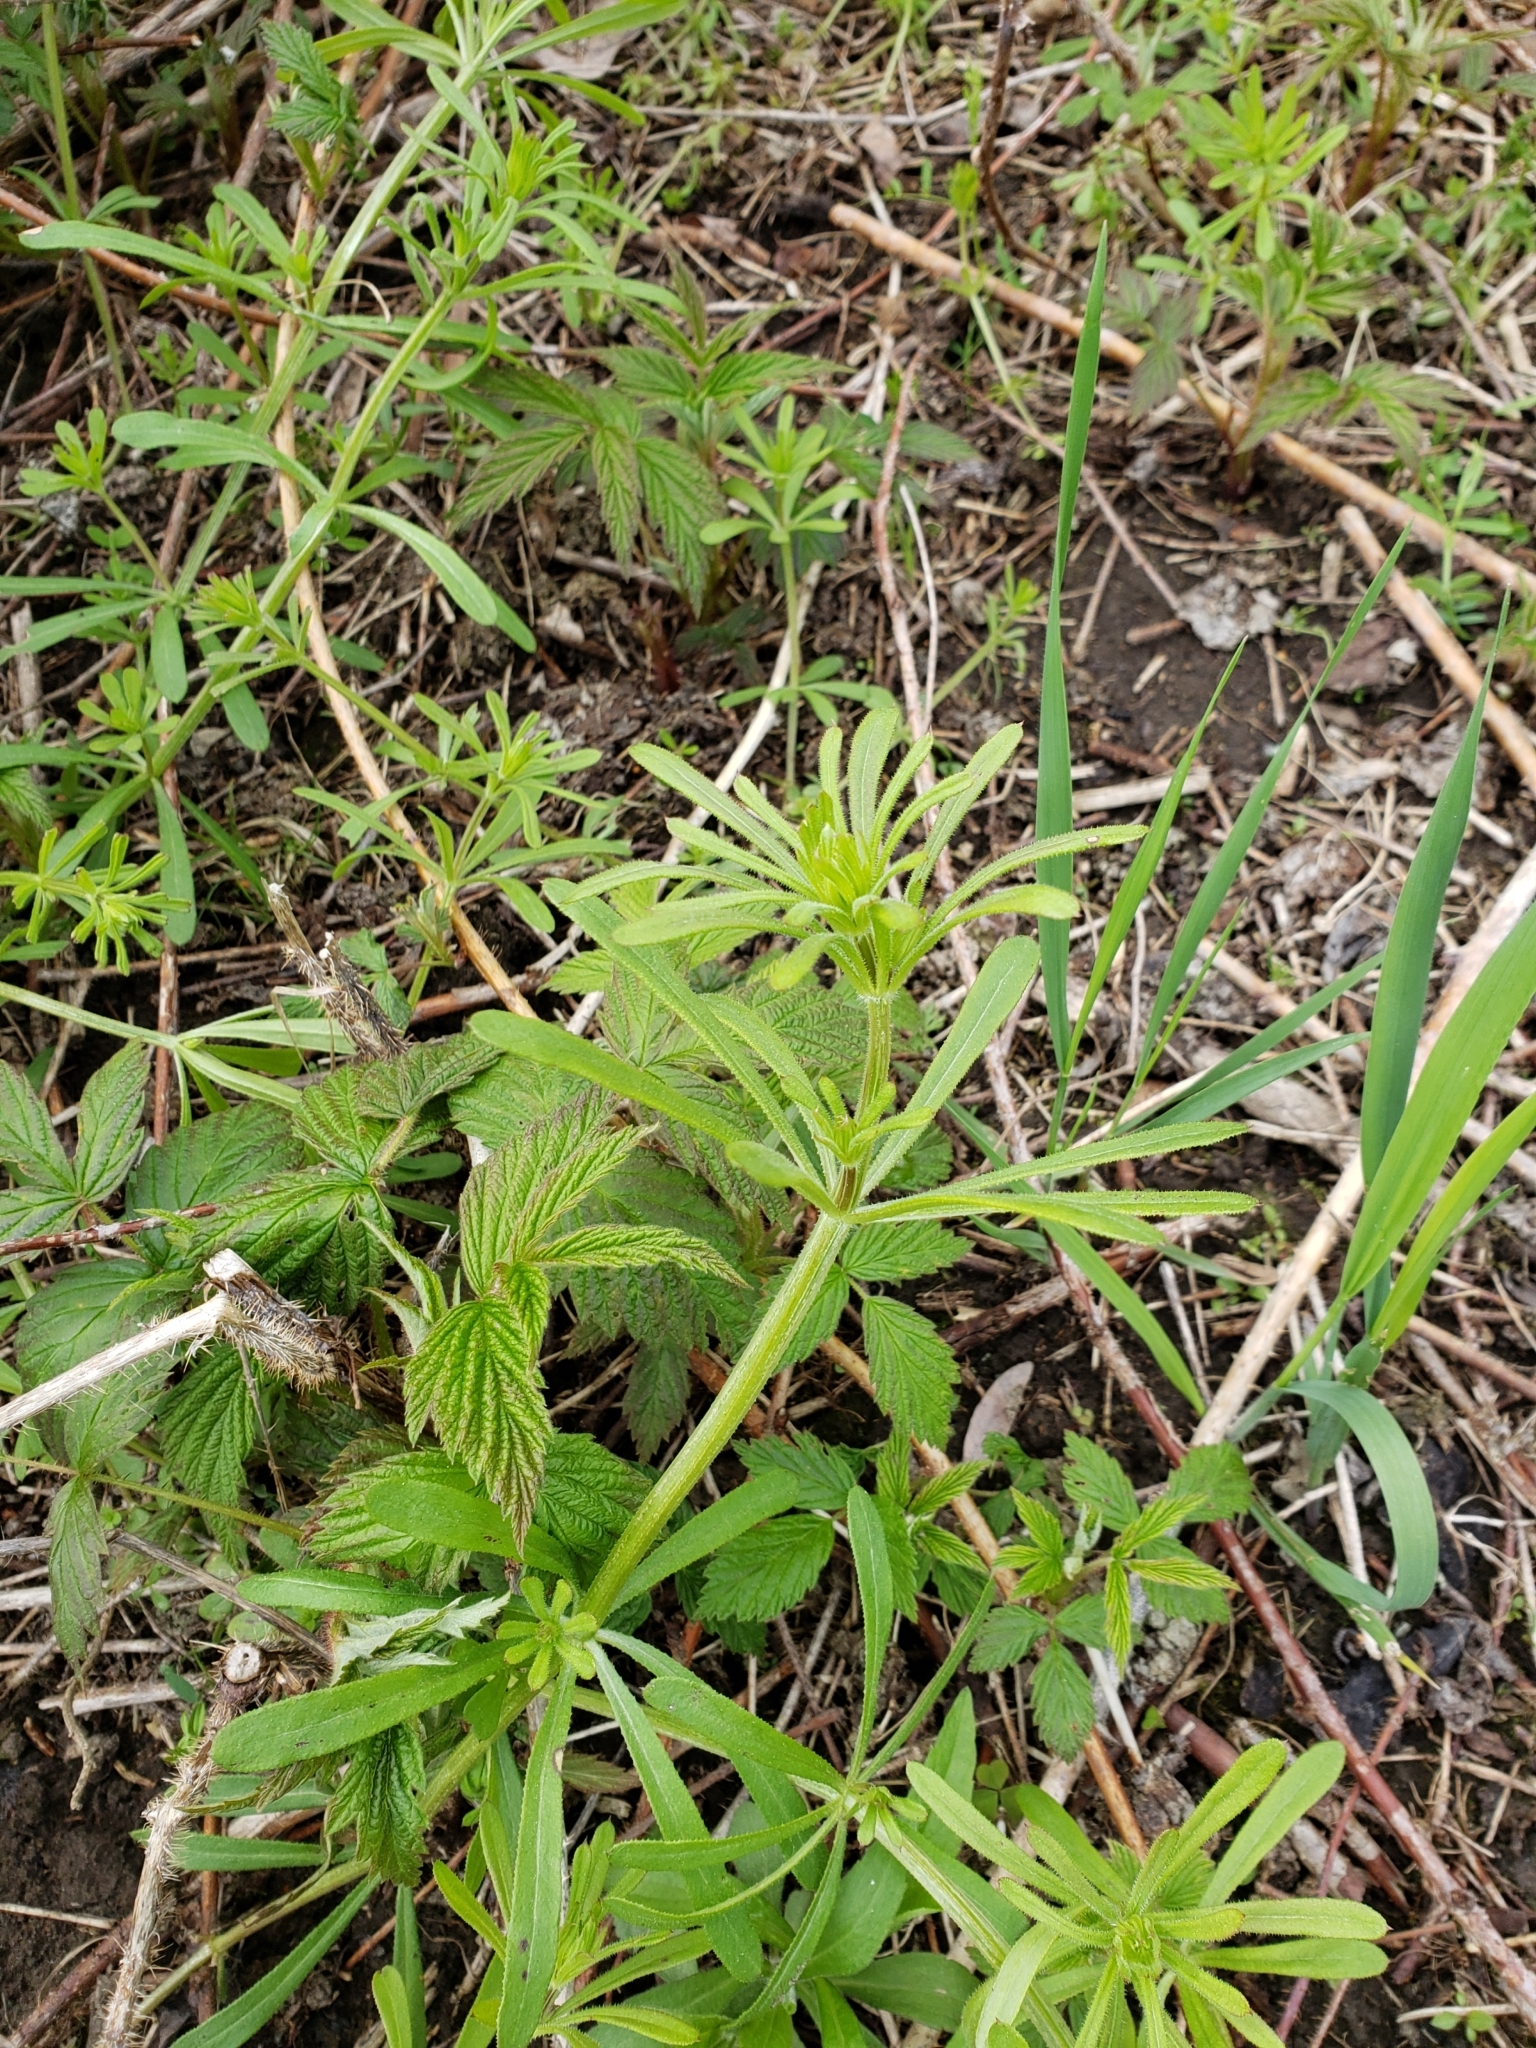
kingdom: Plantae
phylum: Tracheophyta
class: Magnoliopsida
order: Gentianales
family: Rubiaceae
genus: Galium
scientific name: Galium aparine
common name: Cleavers
